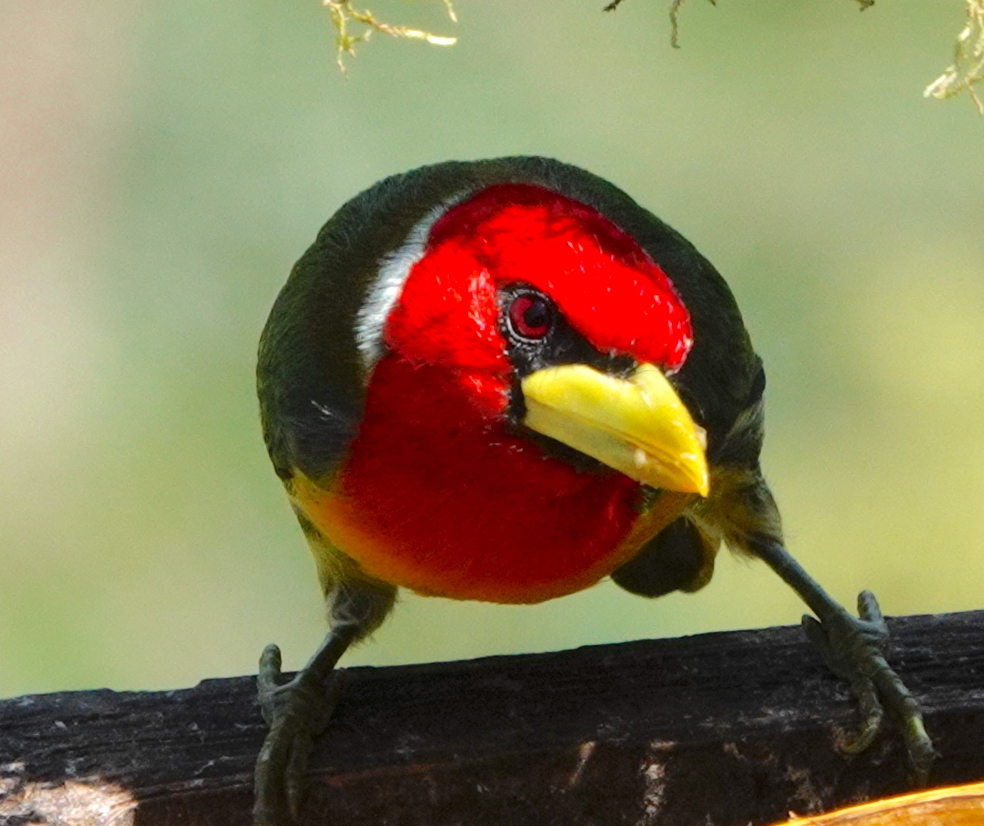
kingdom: Animalia
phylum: Chordata
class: Aves
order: Piciformes
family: Capitonidae
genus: Eubucco
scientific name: Eubucco bourcierii
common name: Red-headed barbet
